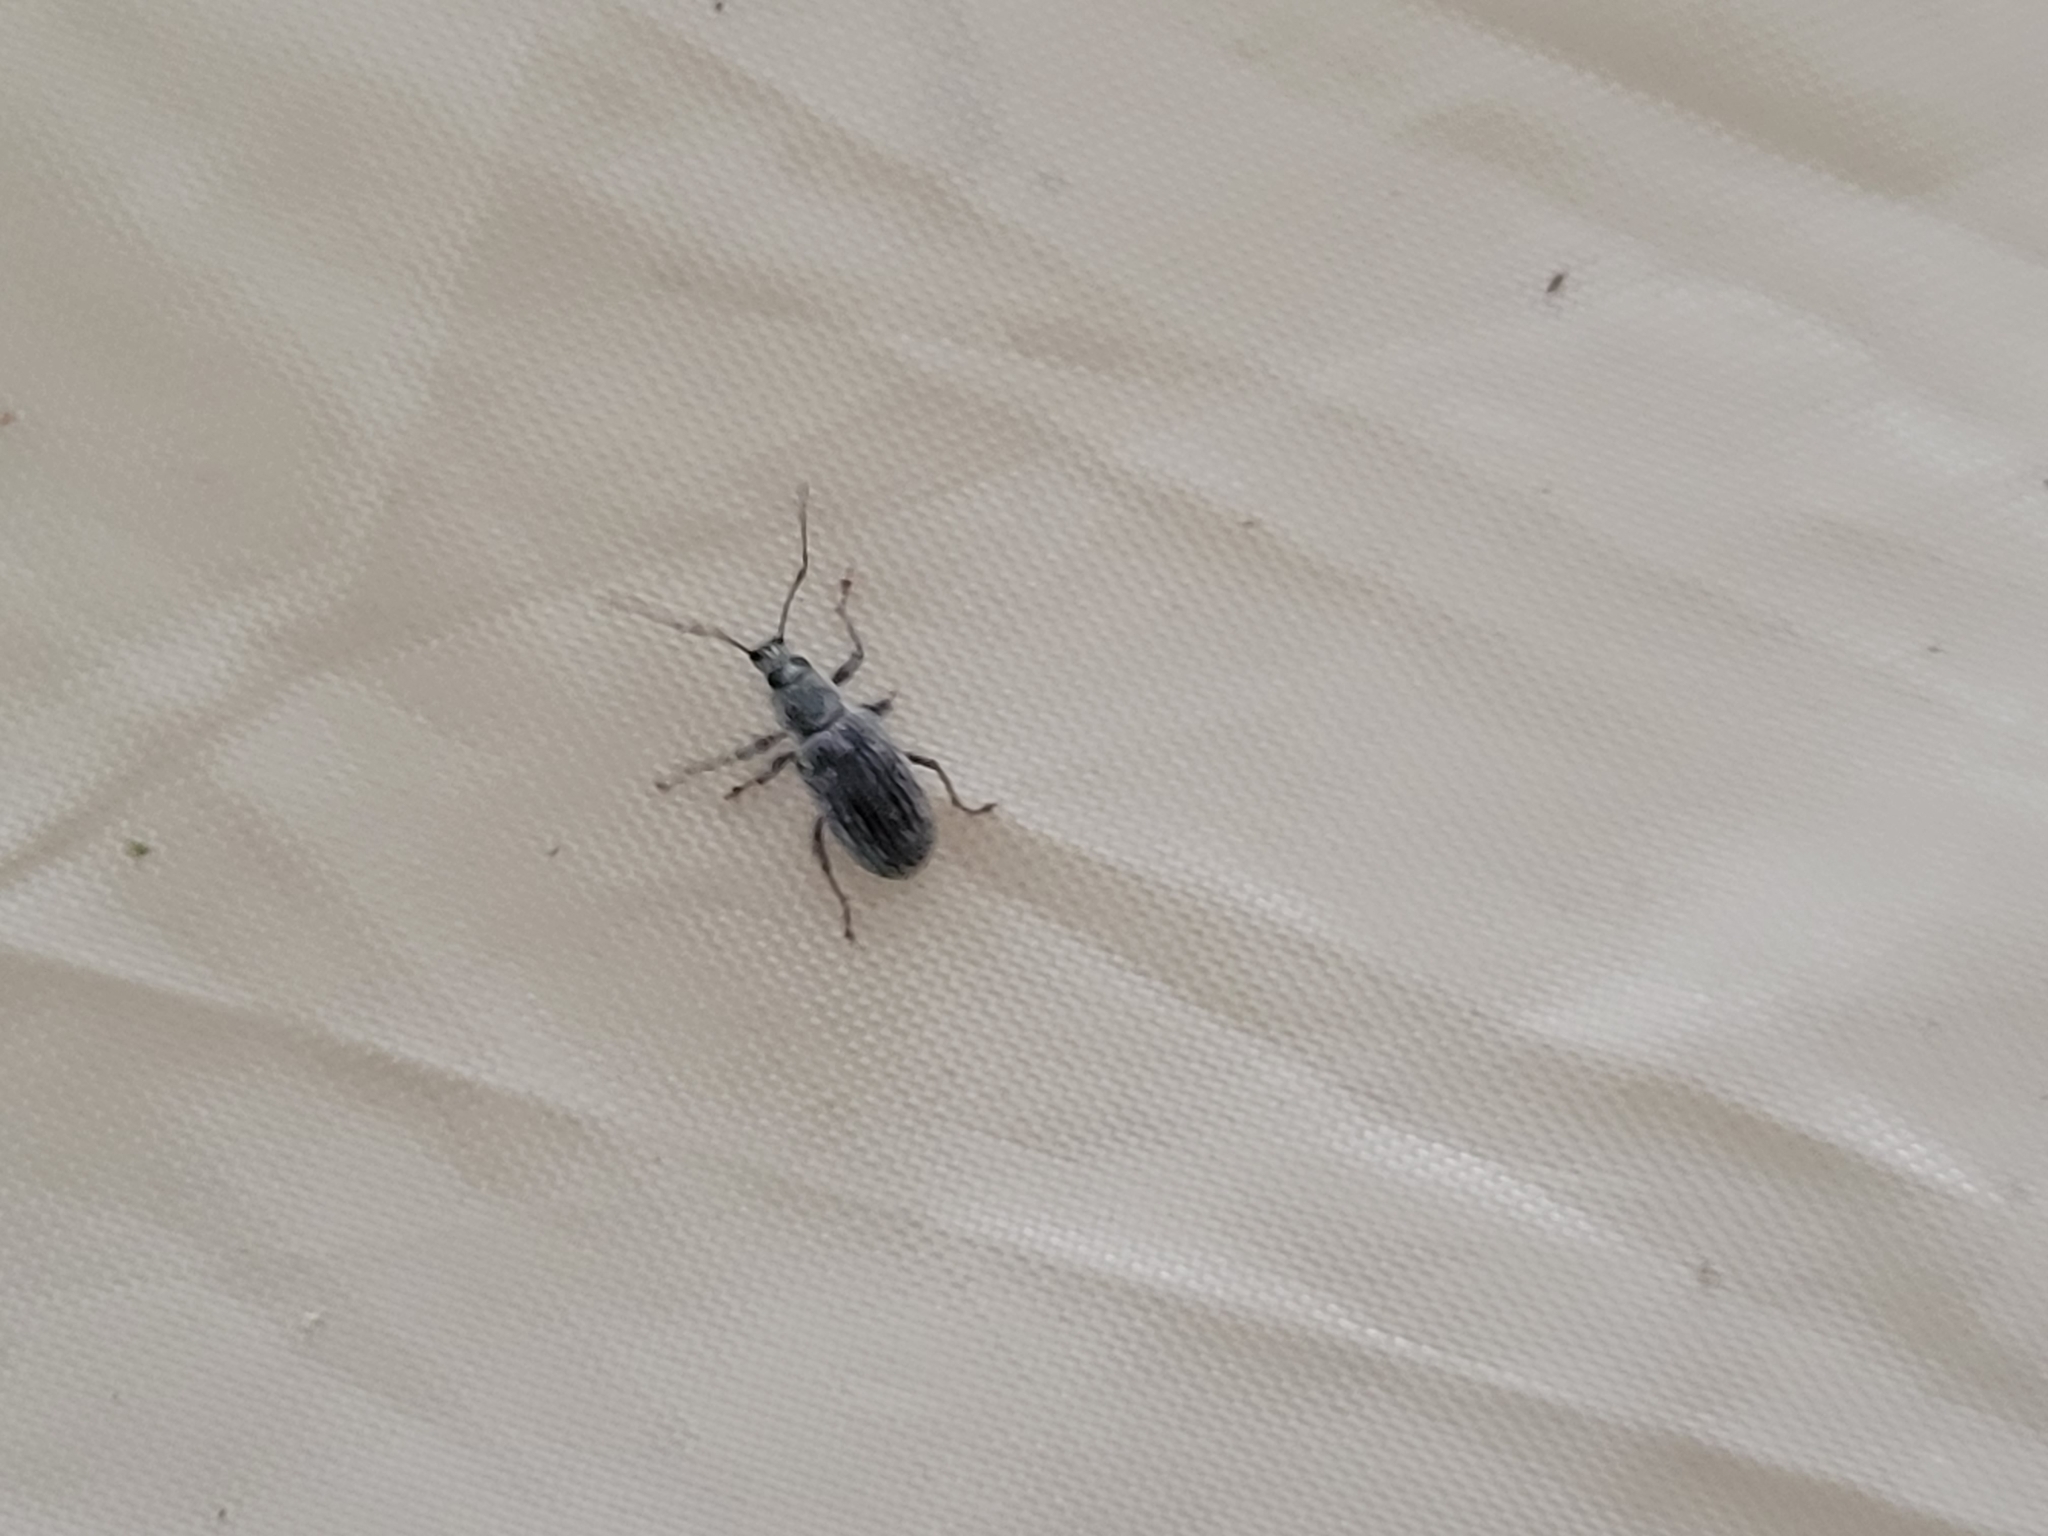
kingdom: Animalia
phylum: Arthropoda
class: Insecta
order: Coleoptera
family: Curculionidae
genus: Cyrtepistomus
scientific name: Cyrtepistomus castaneus
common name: Weevil
